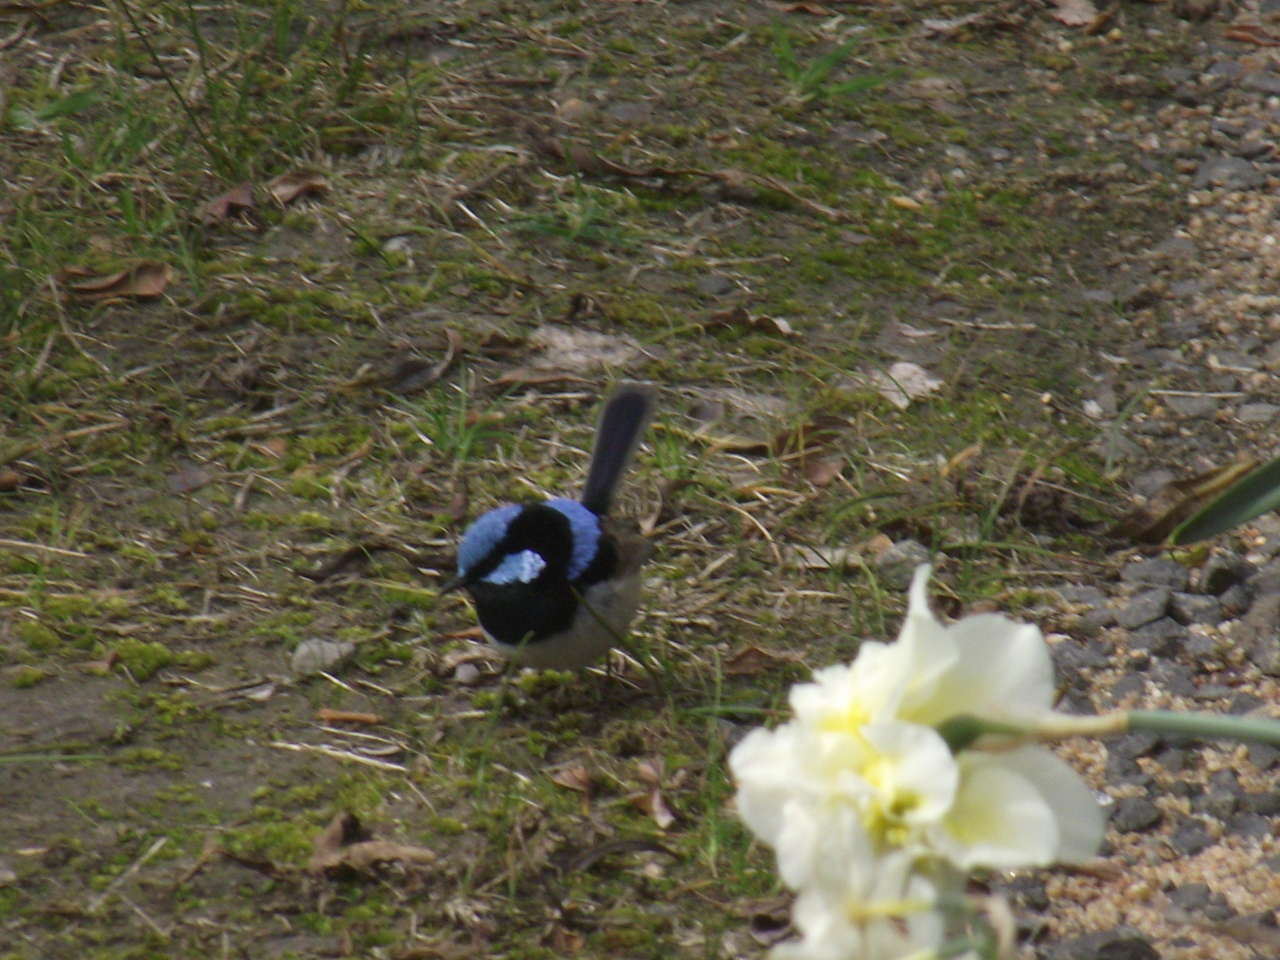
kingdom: Animalia
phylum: Chordata
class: Aves
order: Passeriformes
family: Maluridae
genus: Malurus
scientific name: Malurus cyaneus
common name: Superb fairywren
